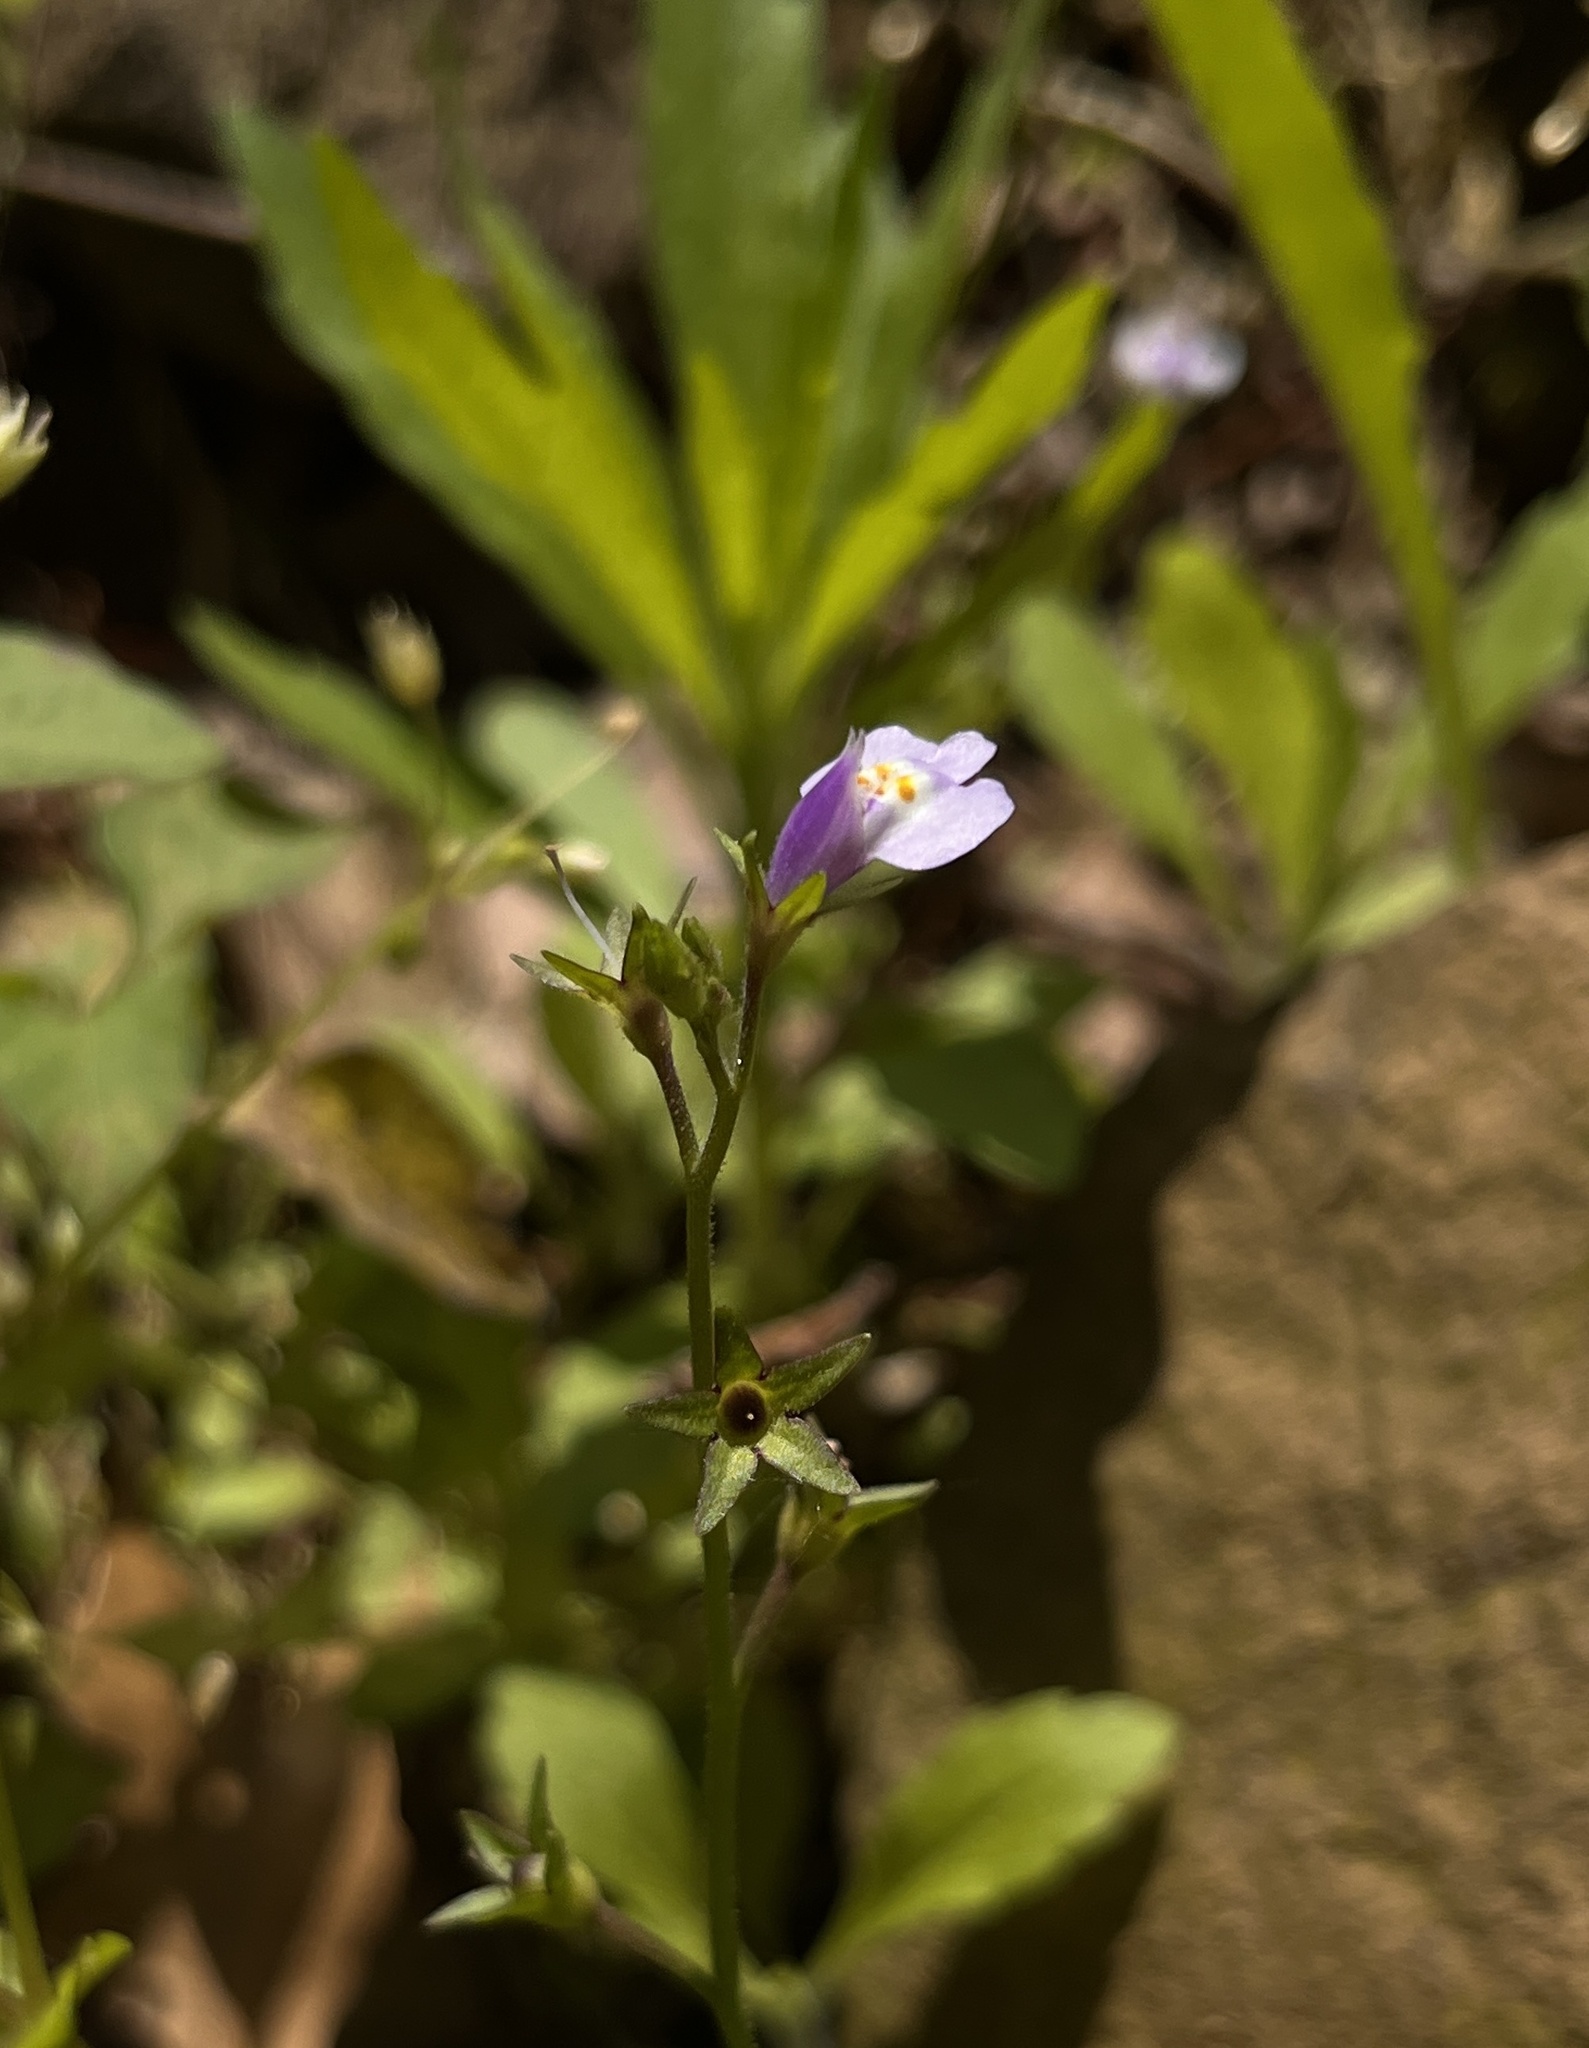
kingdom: Plantae
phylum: Tracheophyta
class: Magnoliopsida
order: Lamiales
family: Mazaceae
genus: Mazus
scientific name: Mazus pumilus
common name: Japanese mazus
